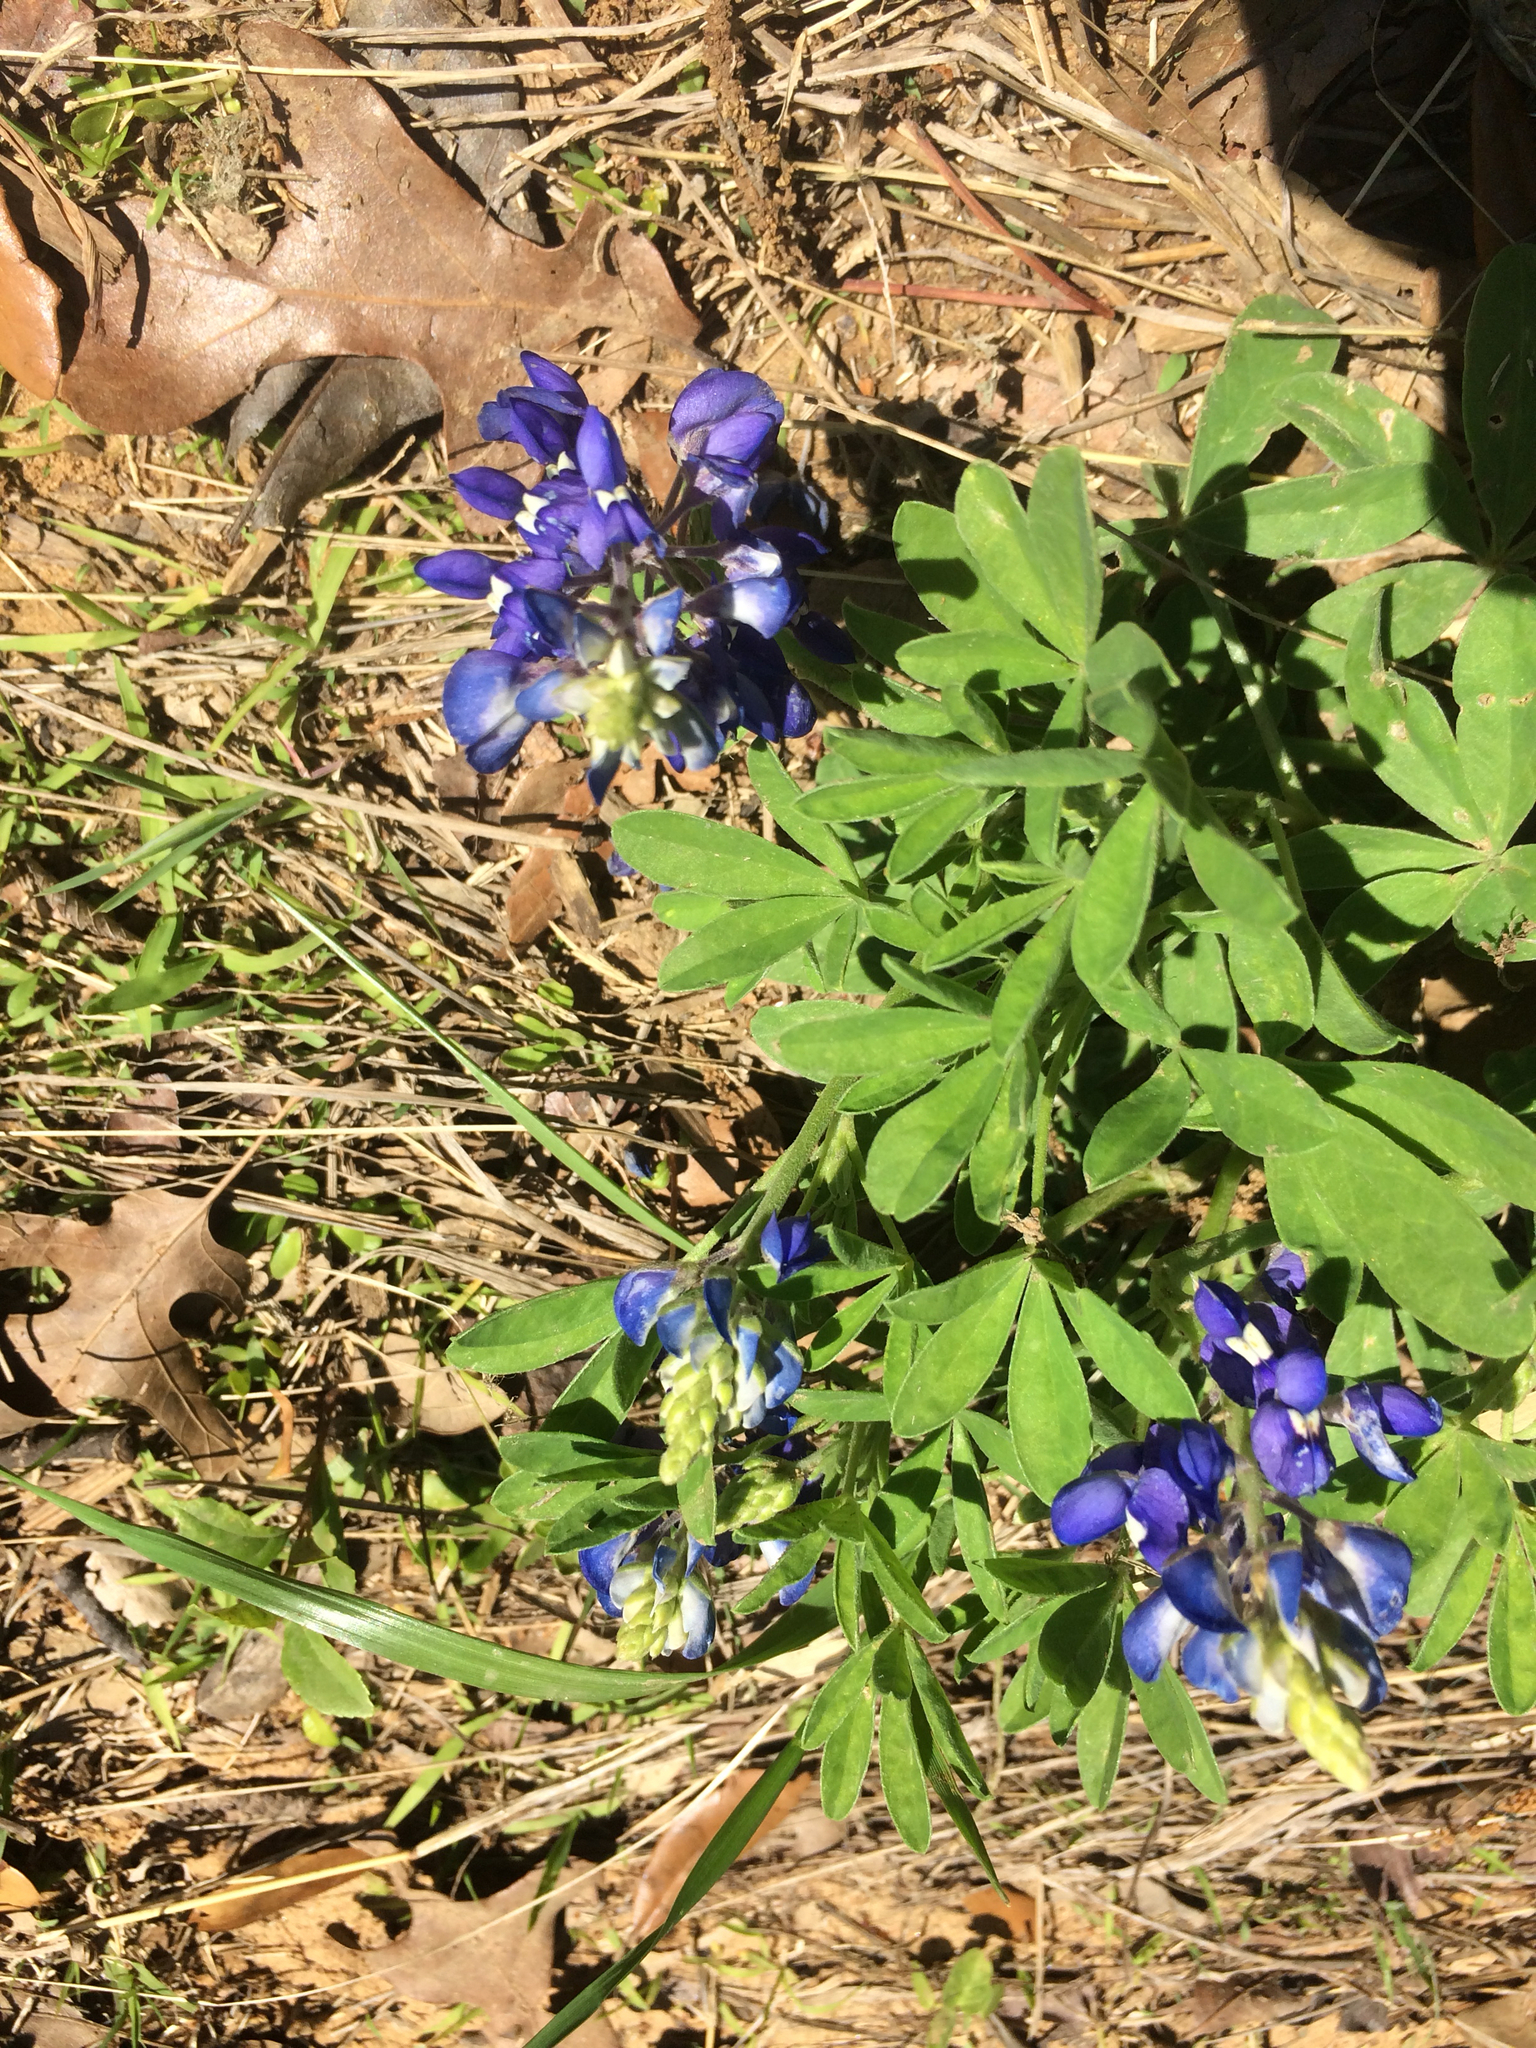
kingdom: Plantae
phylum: Tracheophyta
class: Magnoliopsida
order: Fabales
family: Fabaceae
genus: Lupinus
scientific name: Lupinus texensis
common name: Texas bluebonnet
